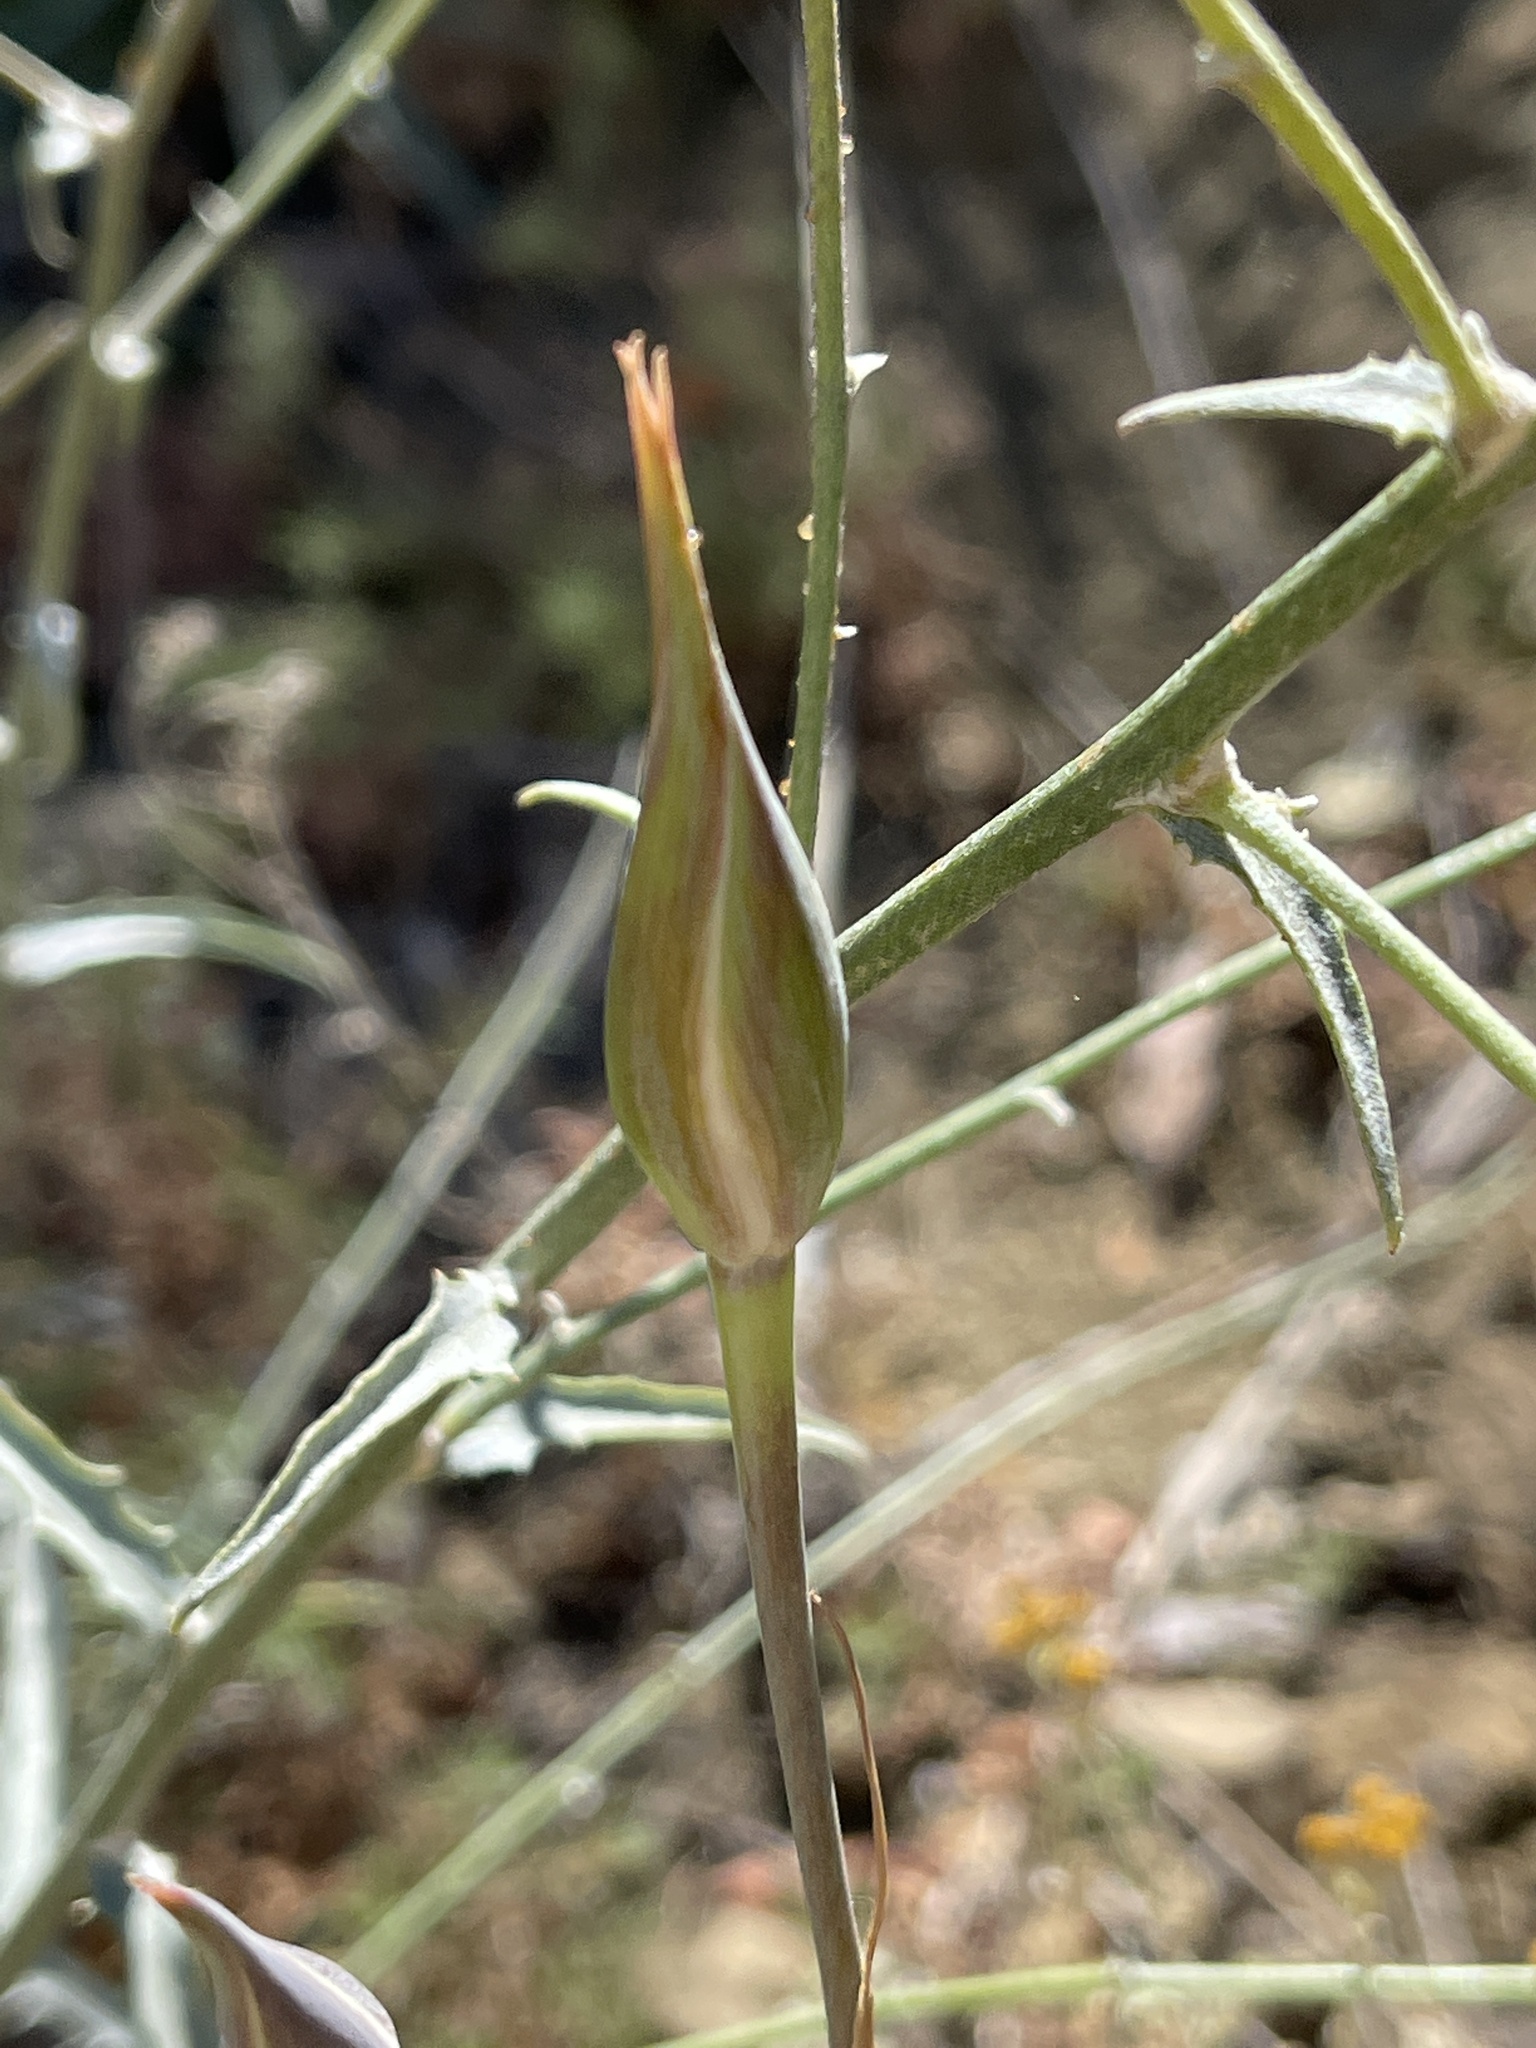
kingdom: Plantae
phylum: Tracheophyta
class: Liliopsida
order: Liliales
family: Liliaceae
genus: Calochortus
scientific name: Calochortus fimbriatus
